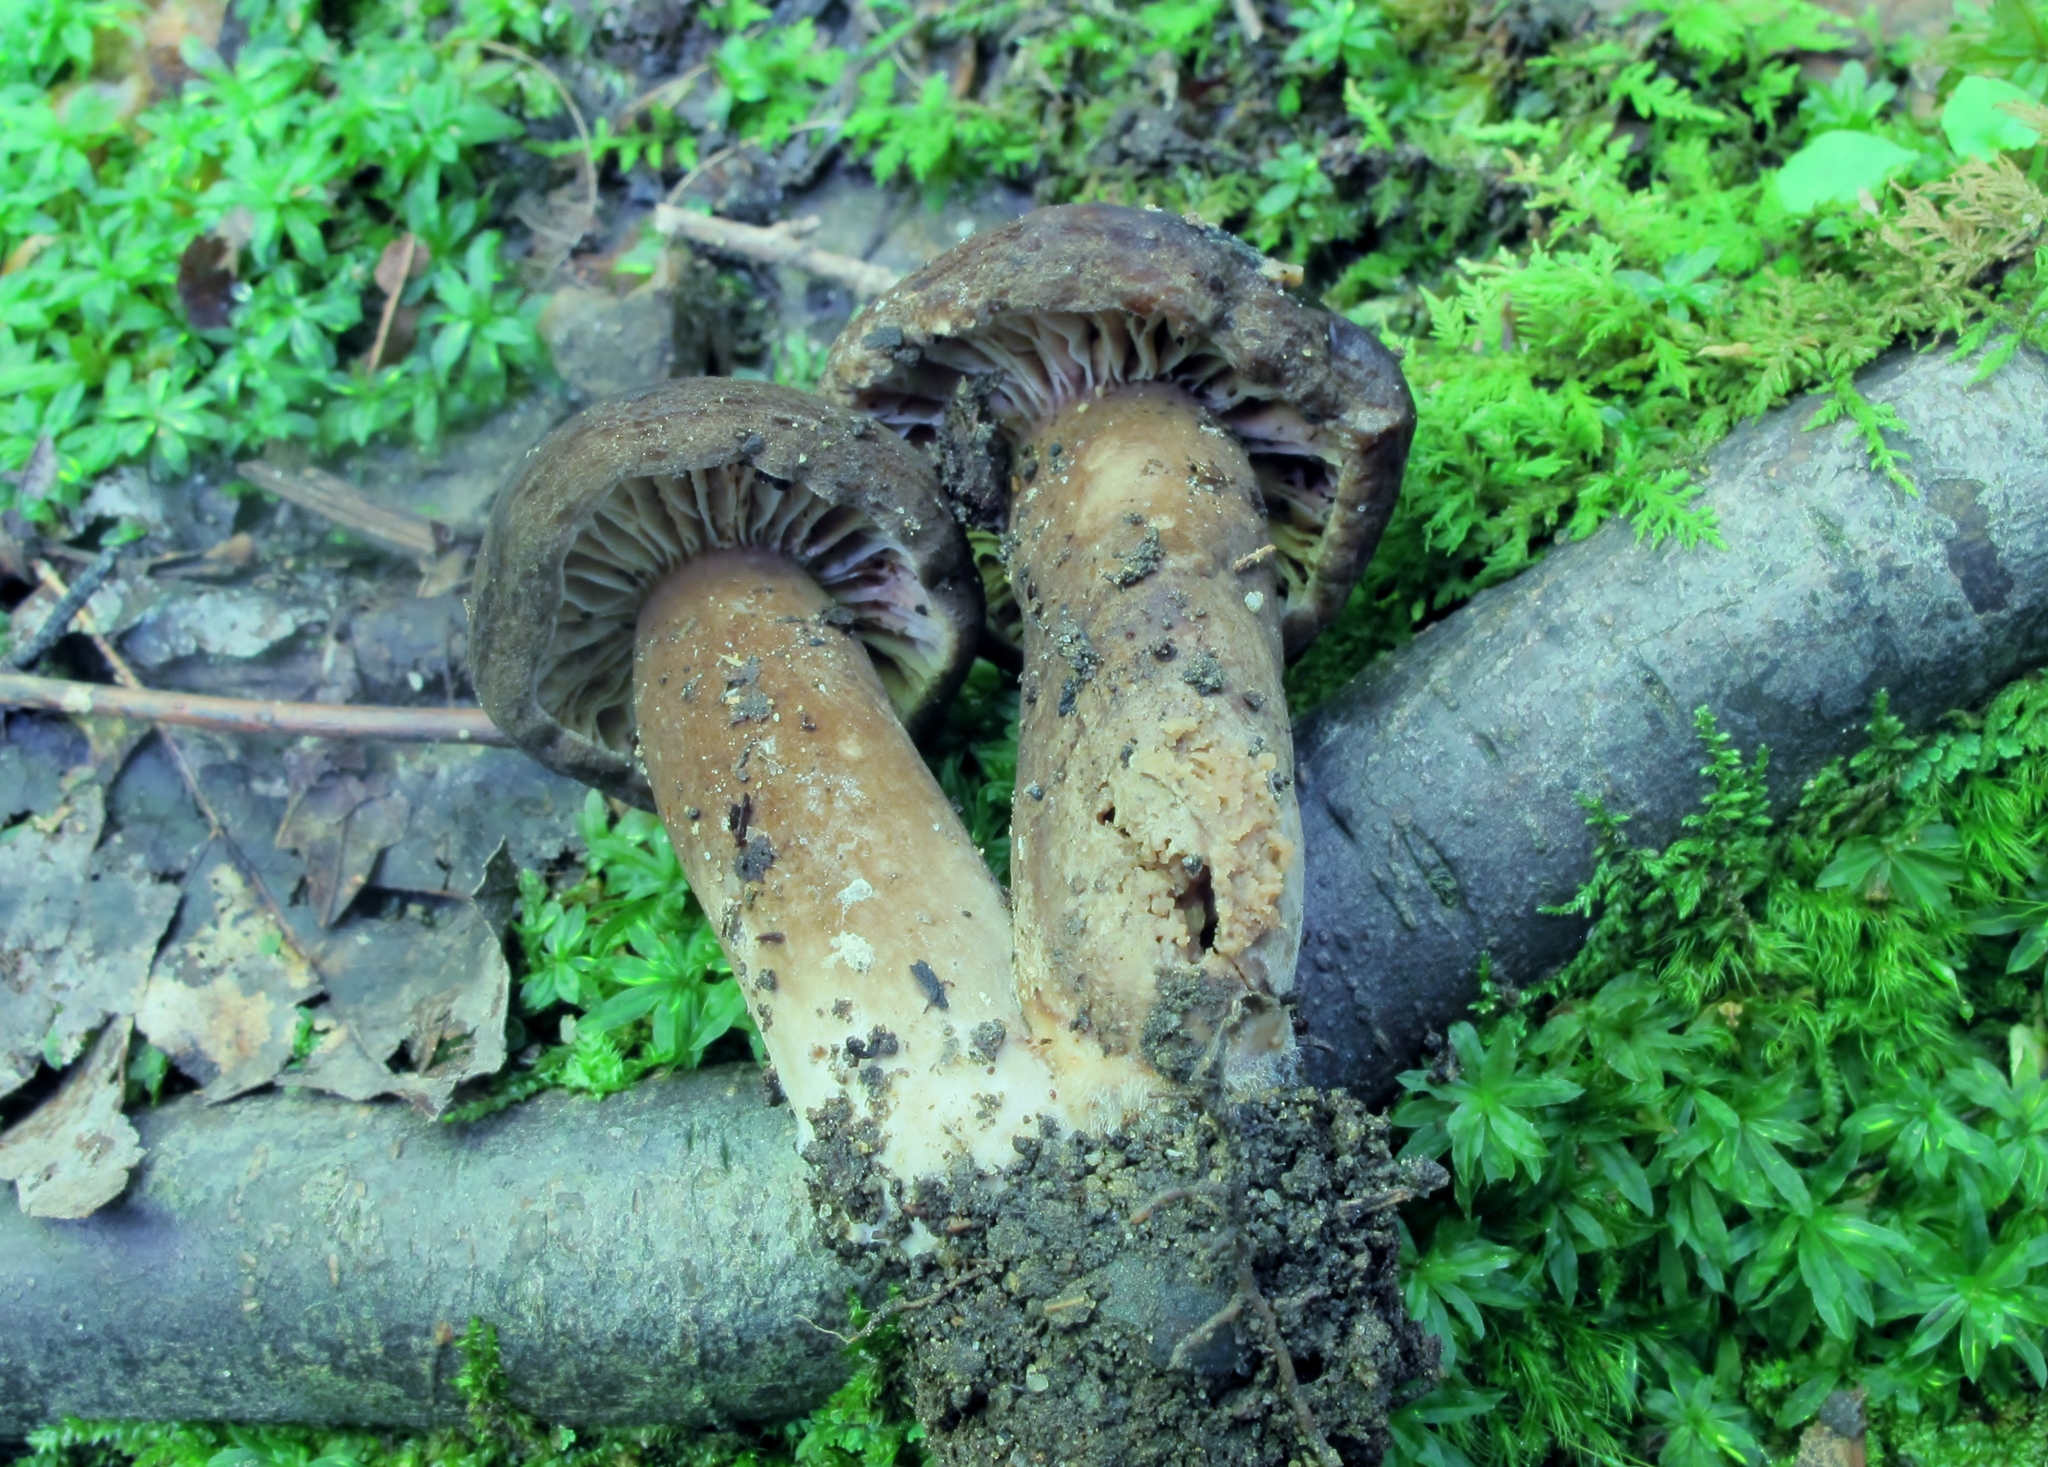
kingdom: Fungi
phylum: Basidiomycota
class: Agaricomycetes
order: Russulales
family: Russulaceae
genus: Lactarius
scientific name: Lactarius gerardii
